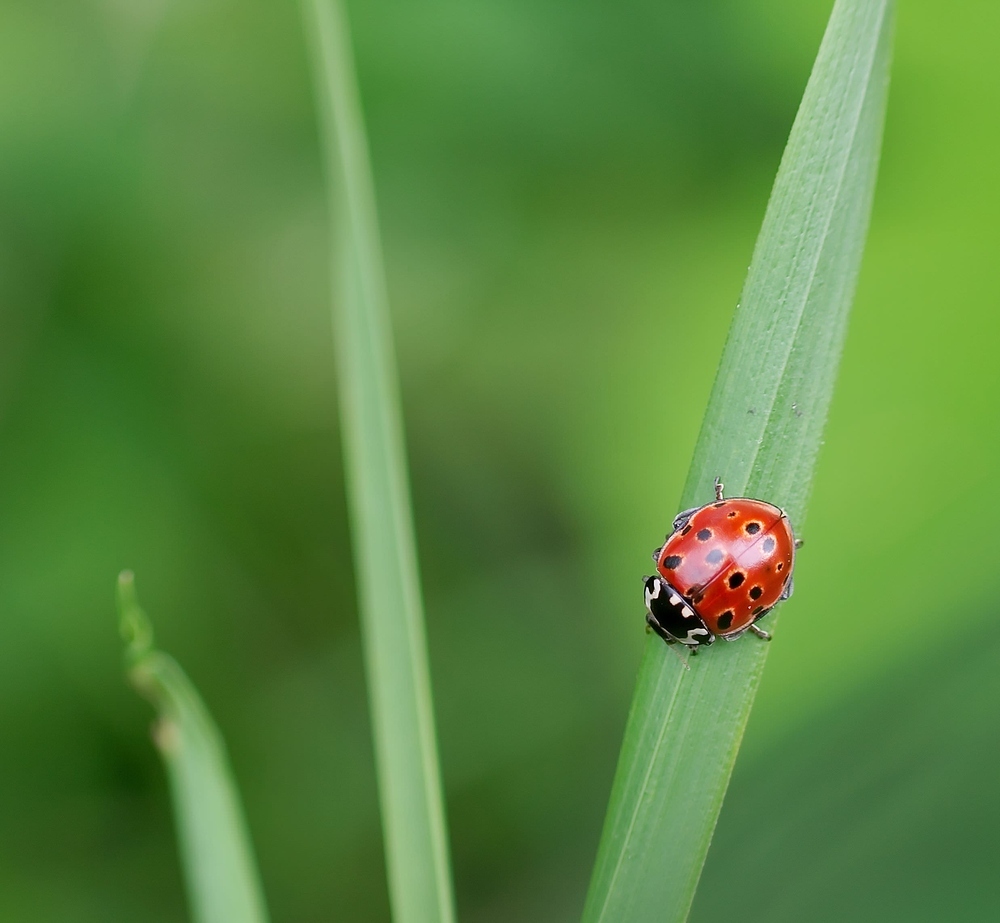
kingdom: Animalia
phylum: Arthropoda
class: Insecta
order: Coleoptera
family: Coccinellidae
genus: Anatis
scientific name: Anatis ocellata
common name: Eyed ladybird
